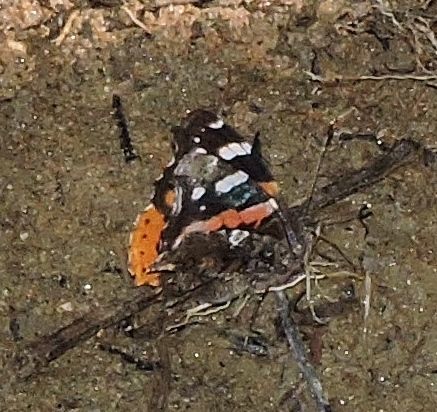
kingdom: Animalia
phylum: Arthropoda
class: Insecta
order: Lepidoptera
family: Nymphalidae
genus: Vanessa
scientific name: Vanessa atalanta
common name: Red admiral
